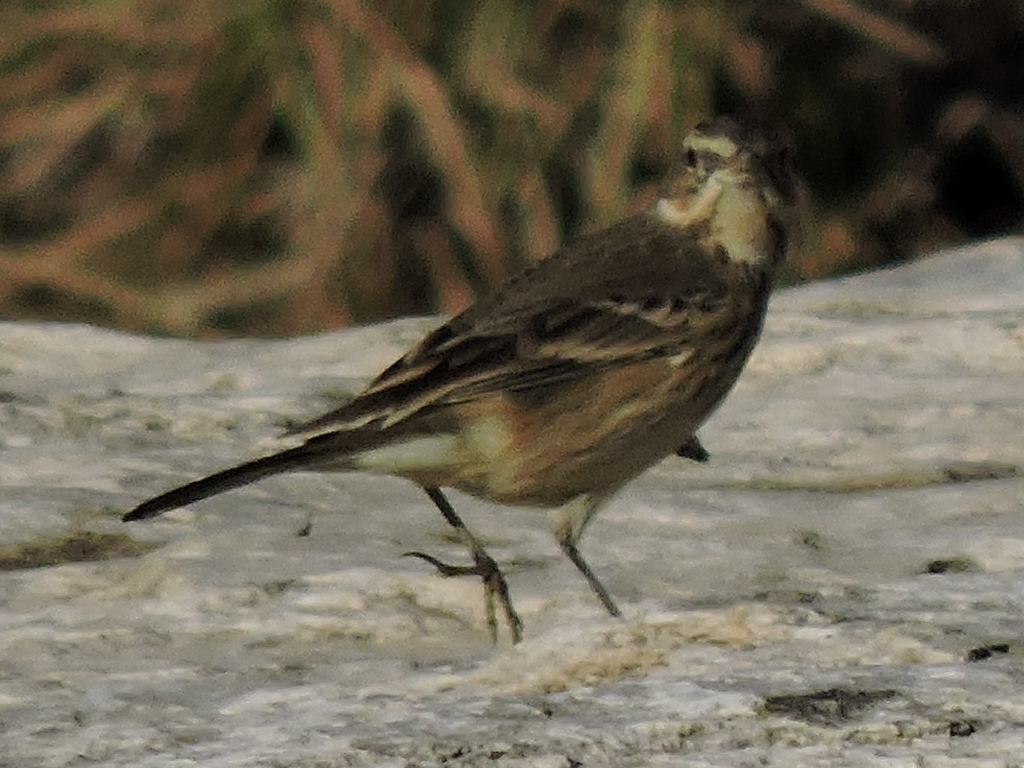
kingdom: Animalia
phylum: Chordata
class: Aves
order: Passeriformes
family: Motacillidae
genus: Anthus
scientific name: Anthus rubescens
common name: Buff-bellied pipit
